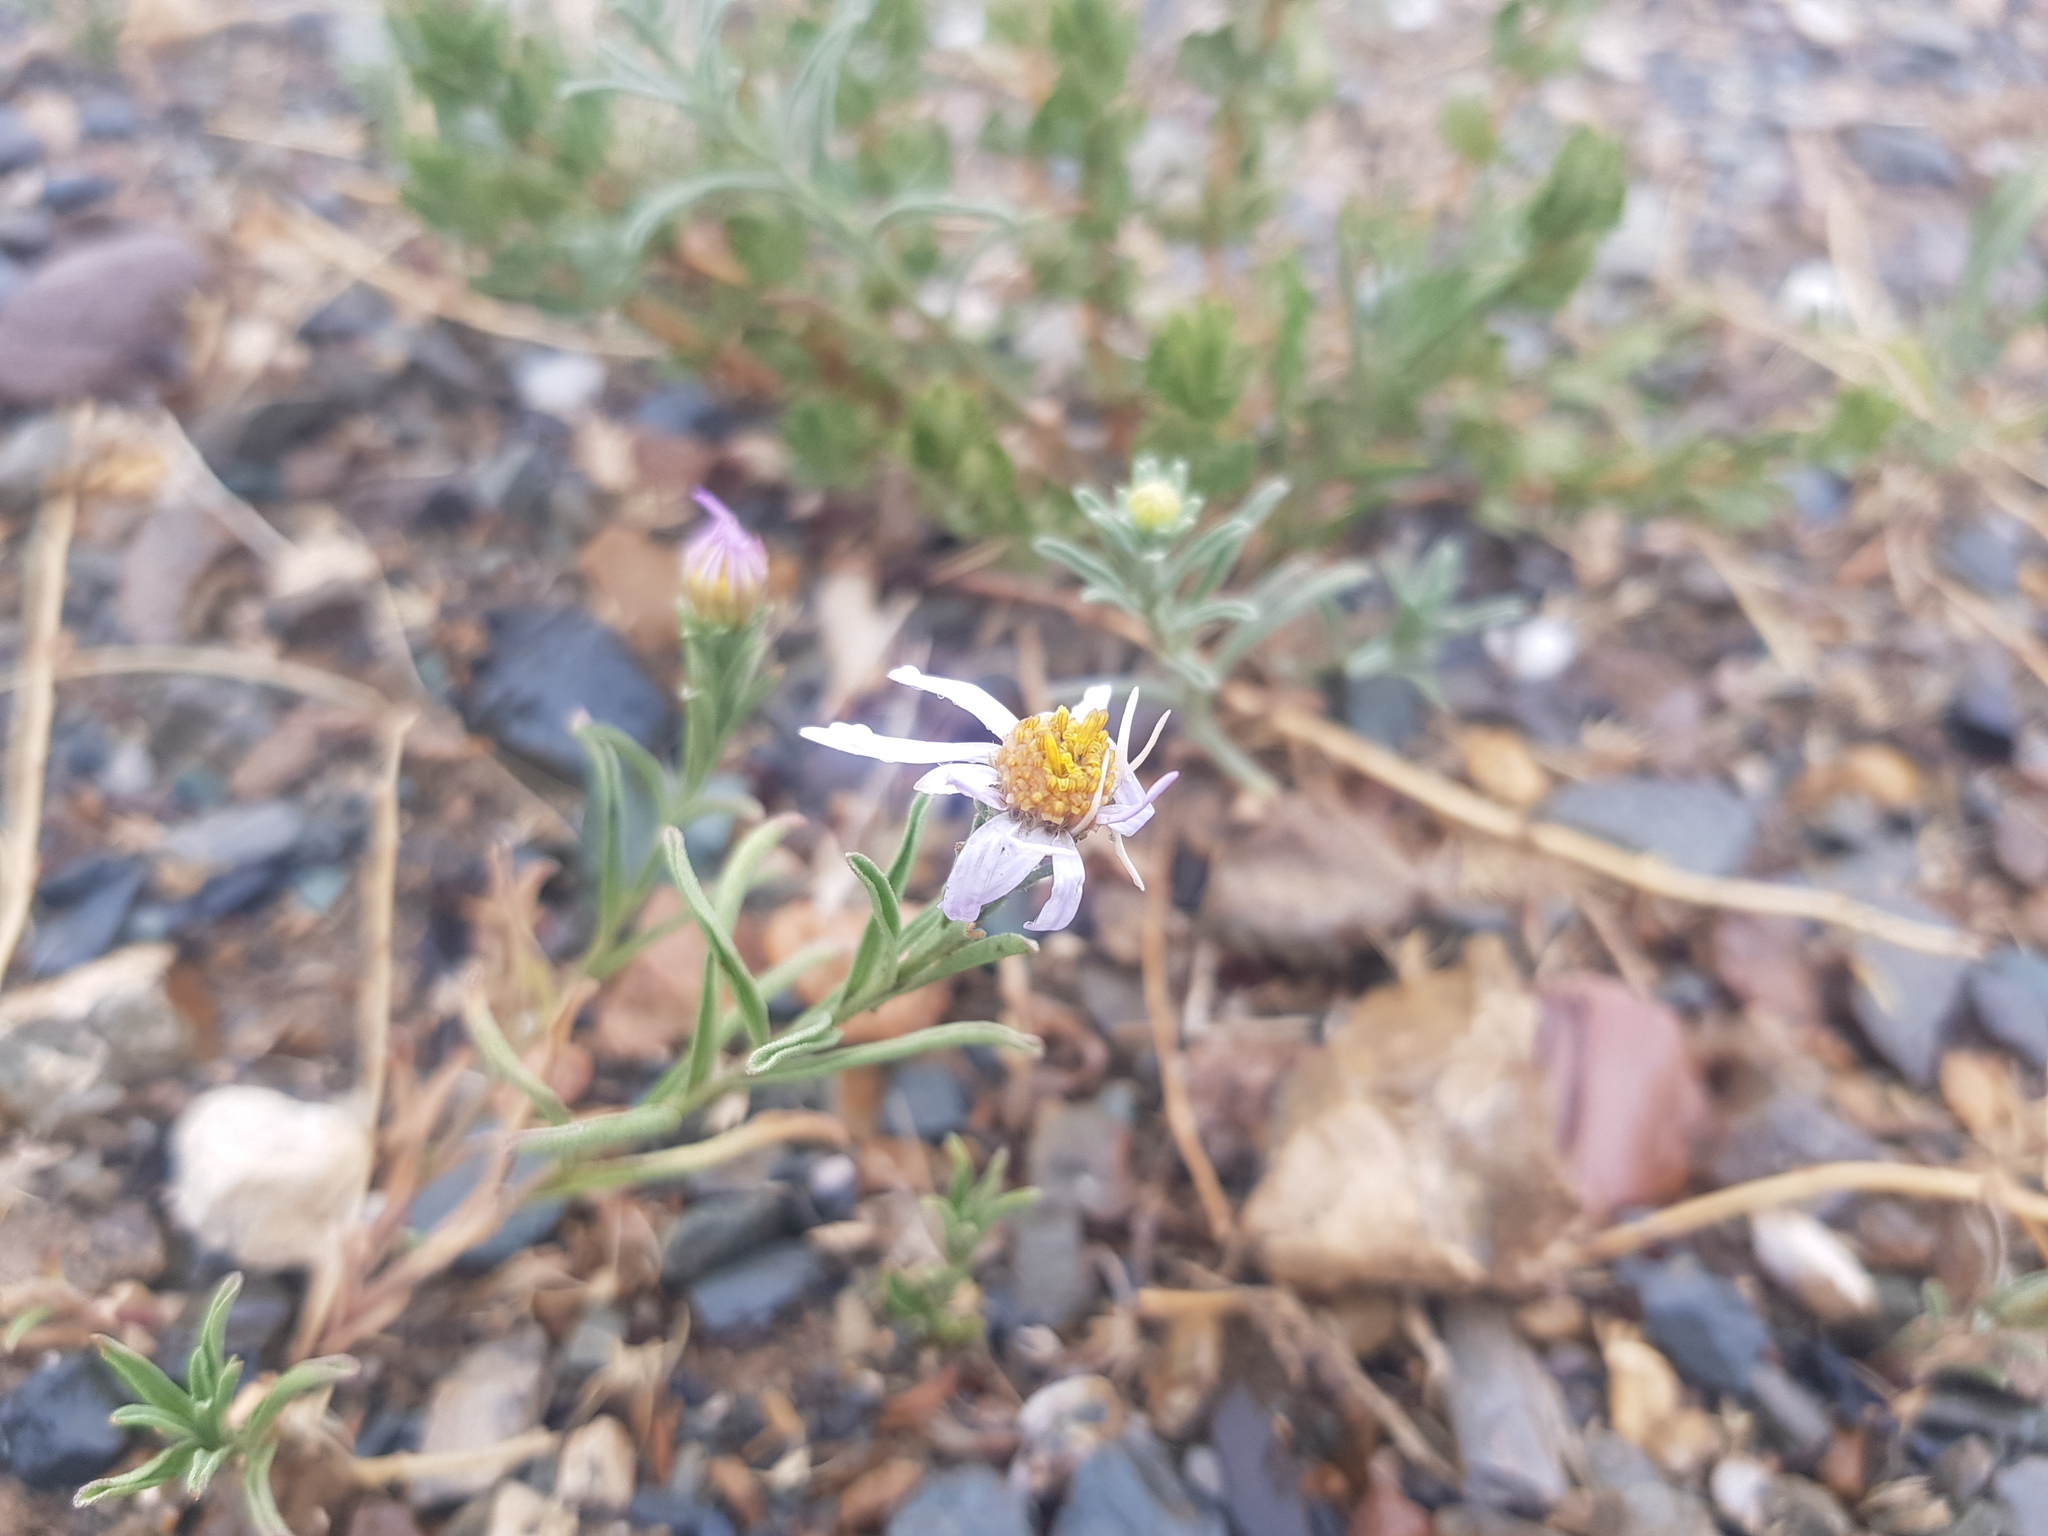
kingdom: Plantae
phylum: Tracheophyta
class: Magnoliopsida
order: Asterales
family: Asteraceae
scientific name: Asteraceae
